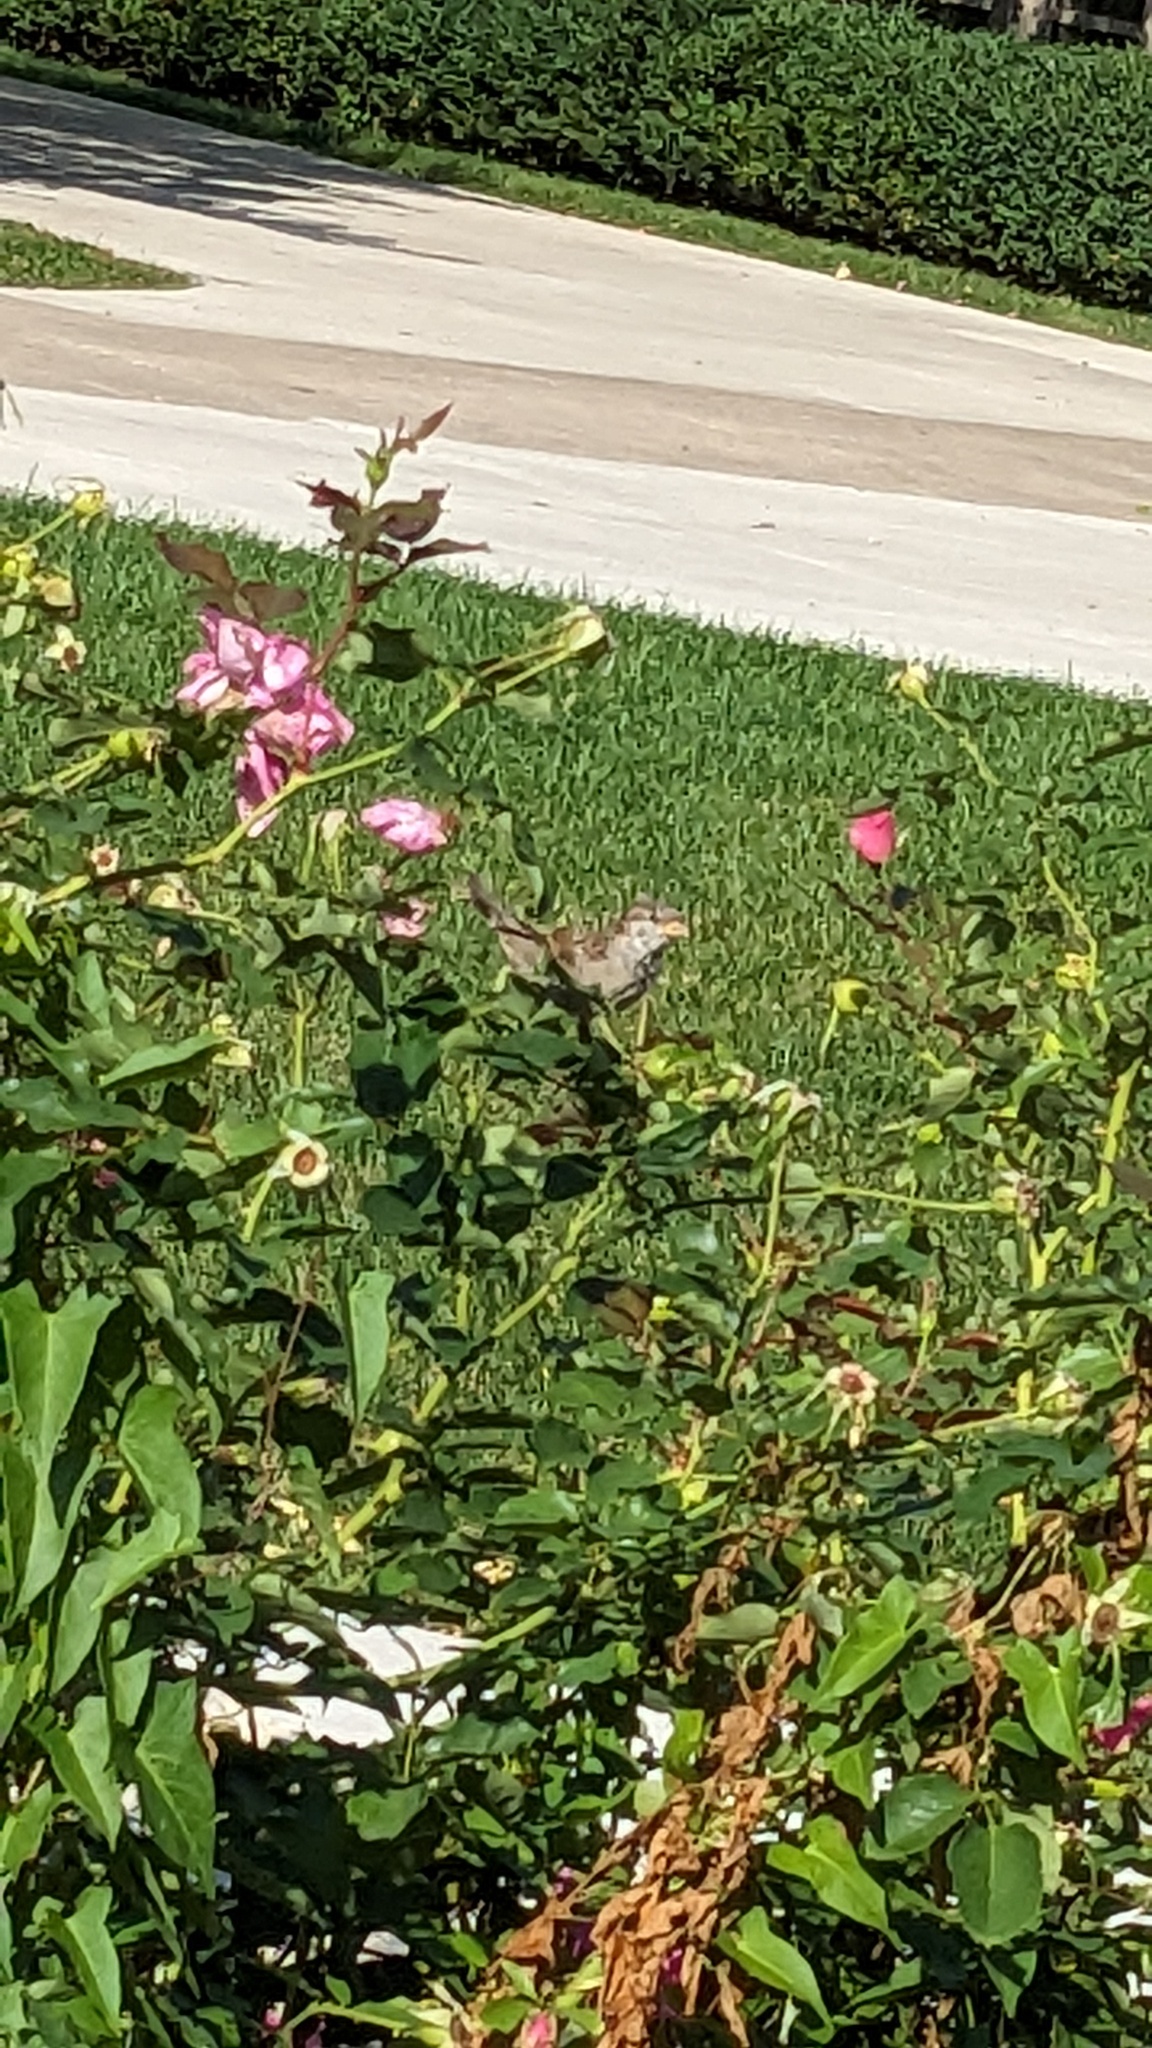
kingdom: Animalia
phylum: Chordata
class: Aves
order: Passeriformes
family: Passeridae
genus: Passer
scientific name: Passer domesticus
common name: House sparrow
